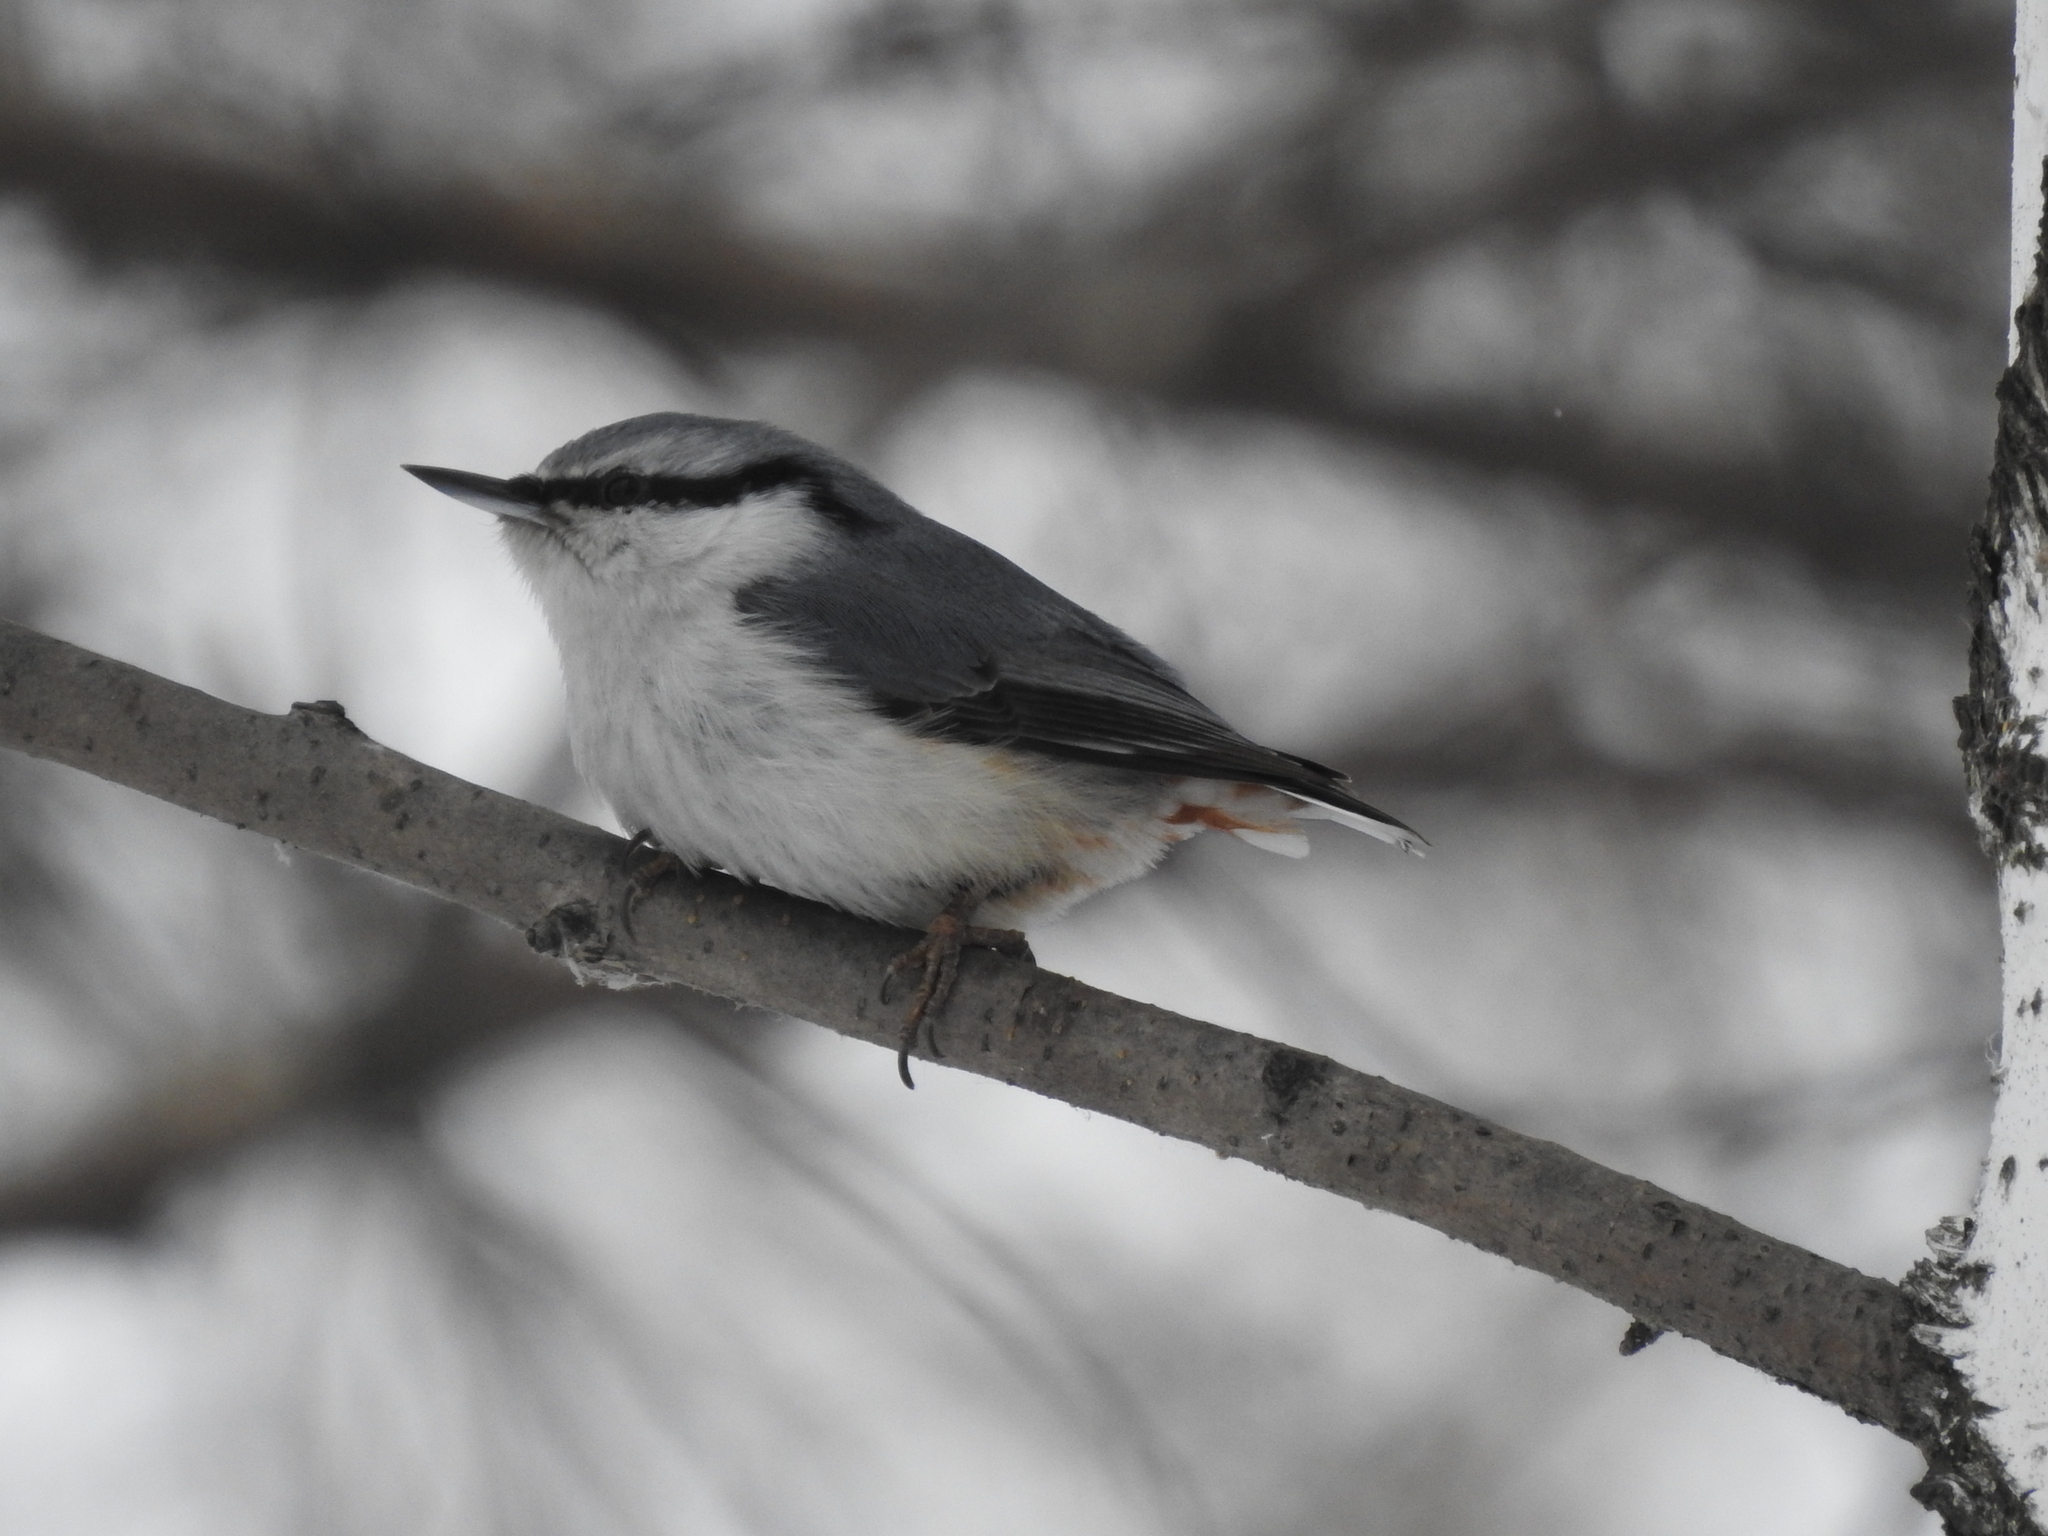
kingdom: Animalia
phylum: Chordata
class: Aves
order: Passeriformes
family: Sittidae
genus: Sitta
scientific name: Sitta europaea
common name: Eurasian nuthatch
